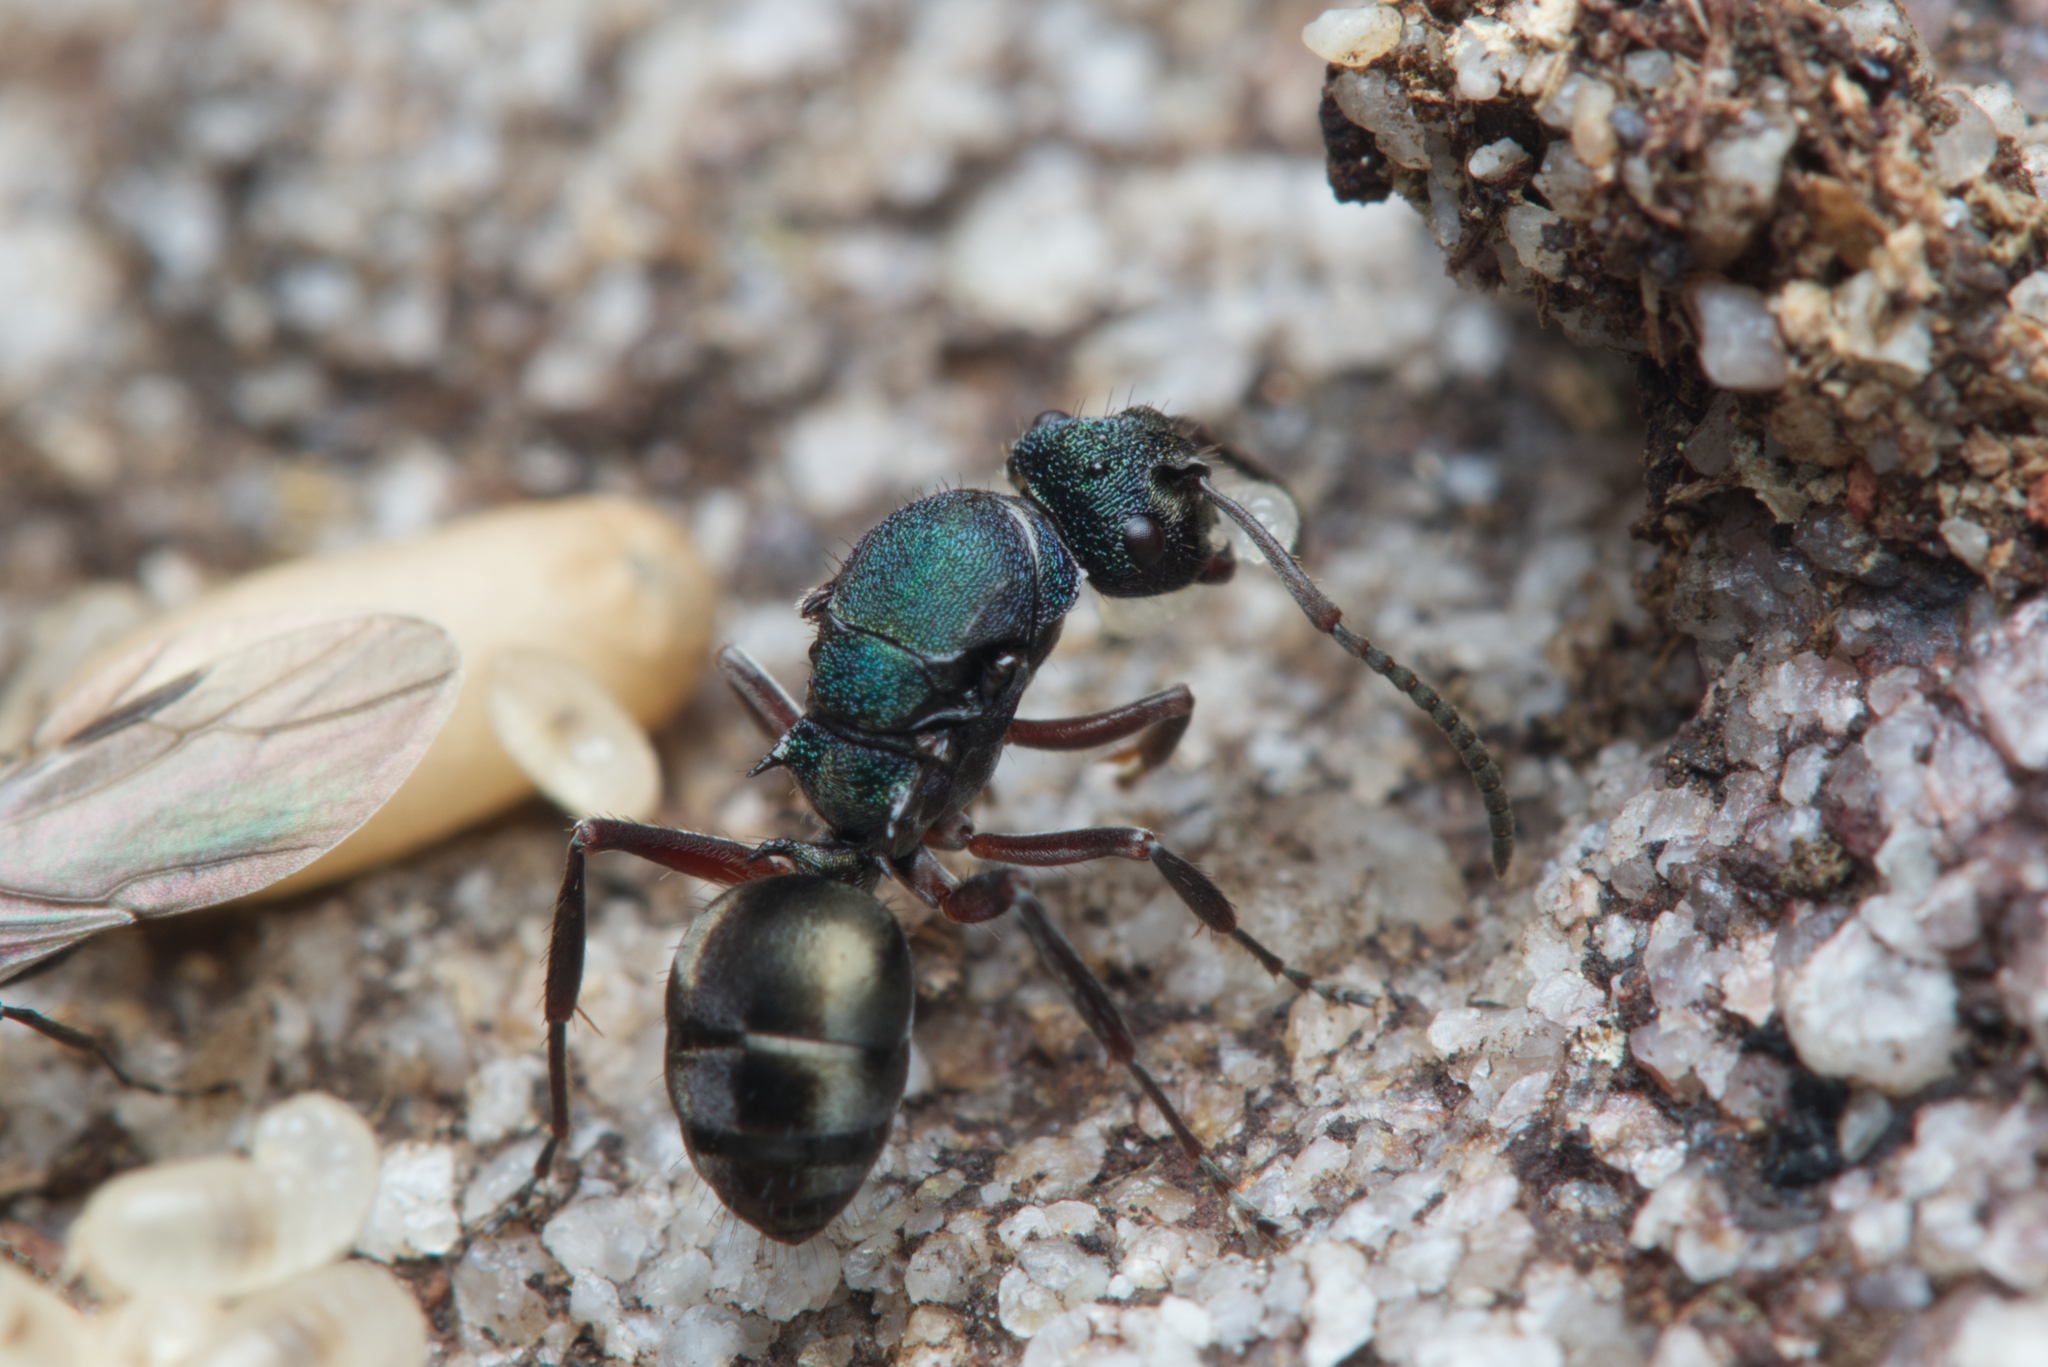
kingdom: Animalia
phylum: Arthropoda
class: Insecta
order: Hymenoptera
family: Formicidae
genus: Polyrhachis
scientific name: Polyrhachis hookeri
